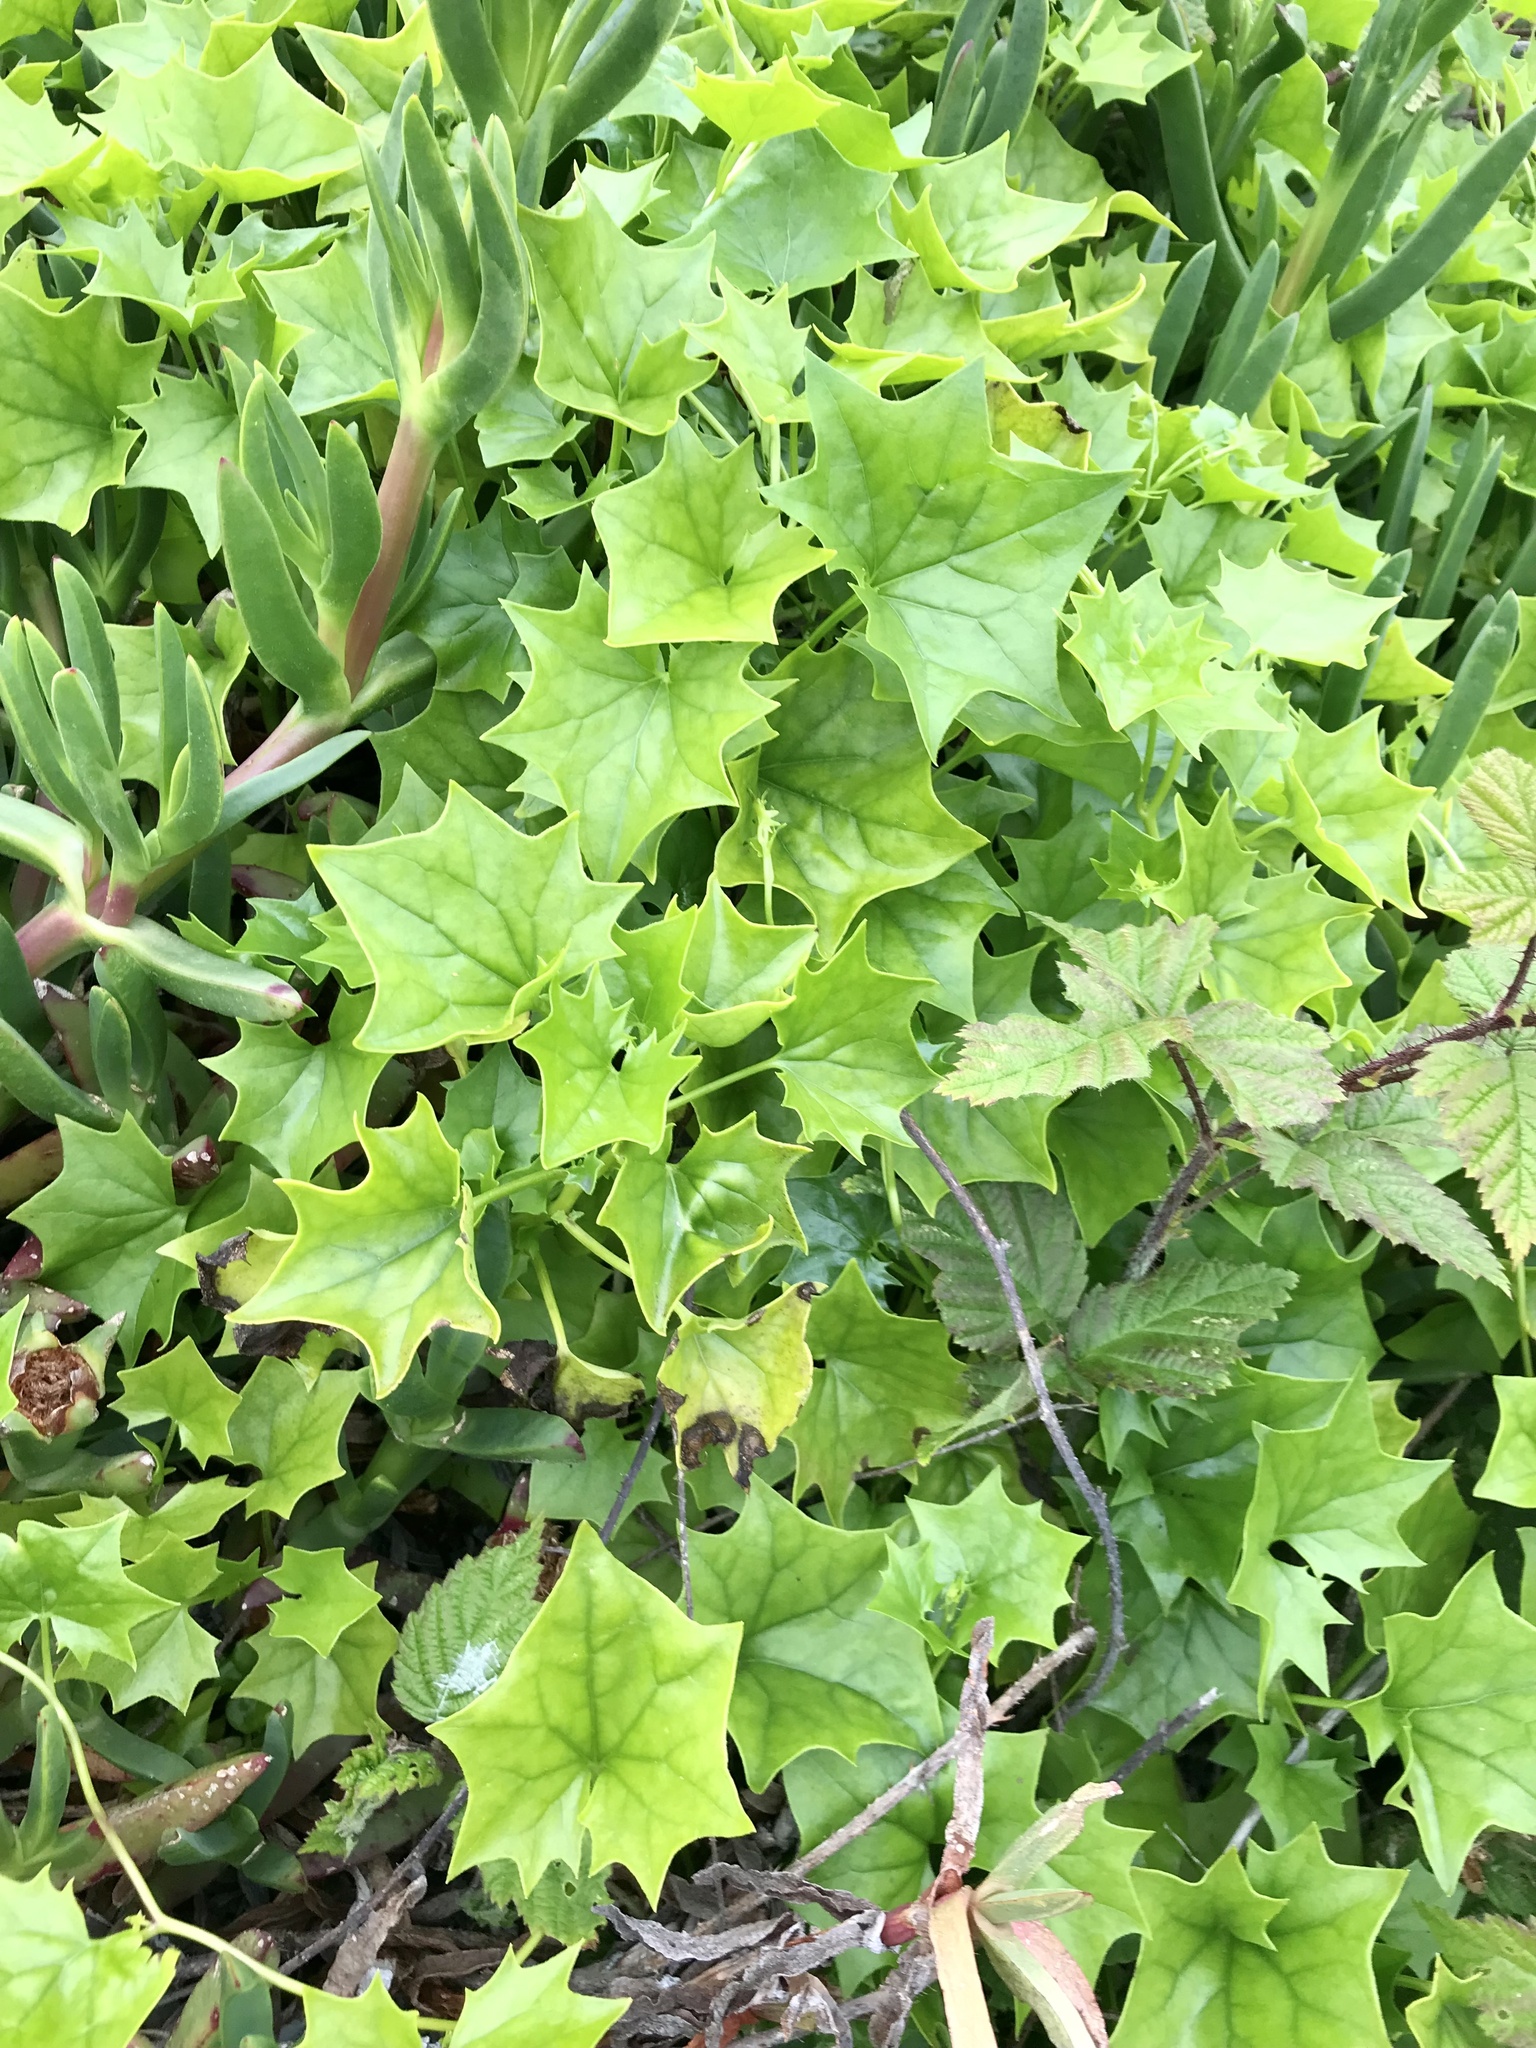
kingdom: Plantae
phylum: Tracheophyta
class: Magnoliopsida
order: Asterales
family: Asteraceae
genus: Delairea
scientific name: Delairea odorata
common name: Cape-ivy
